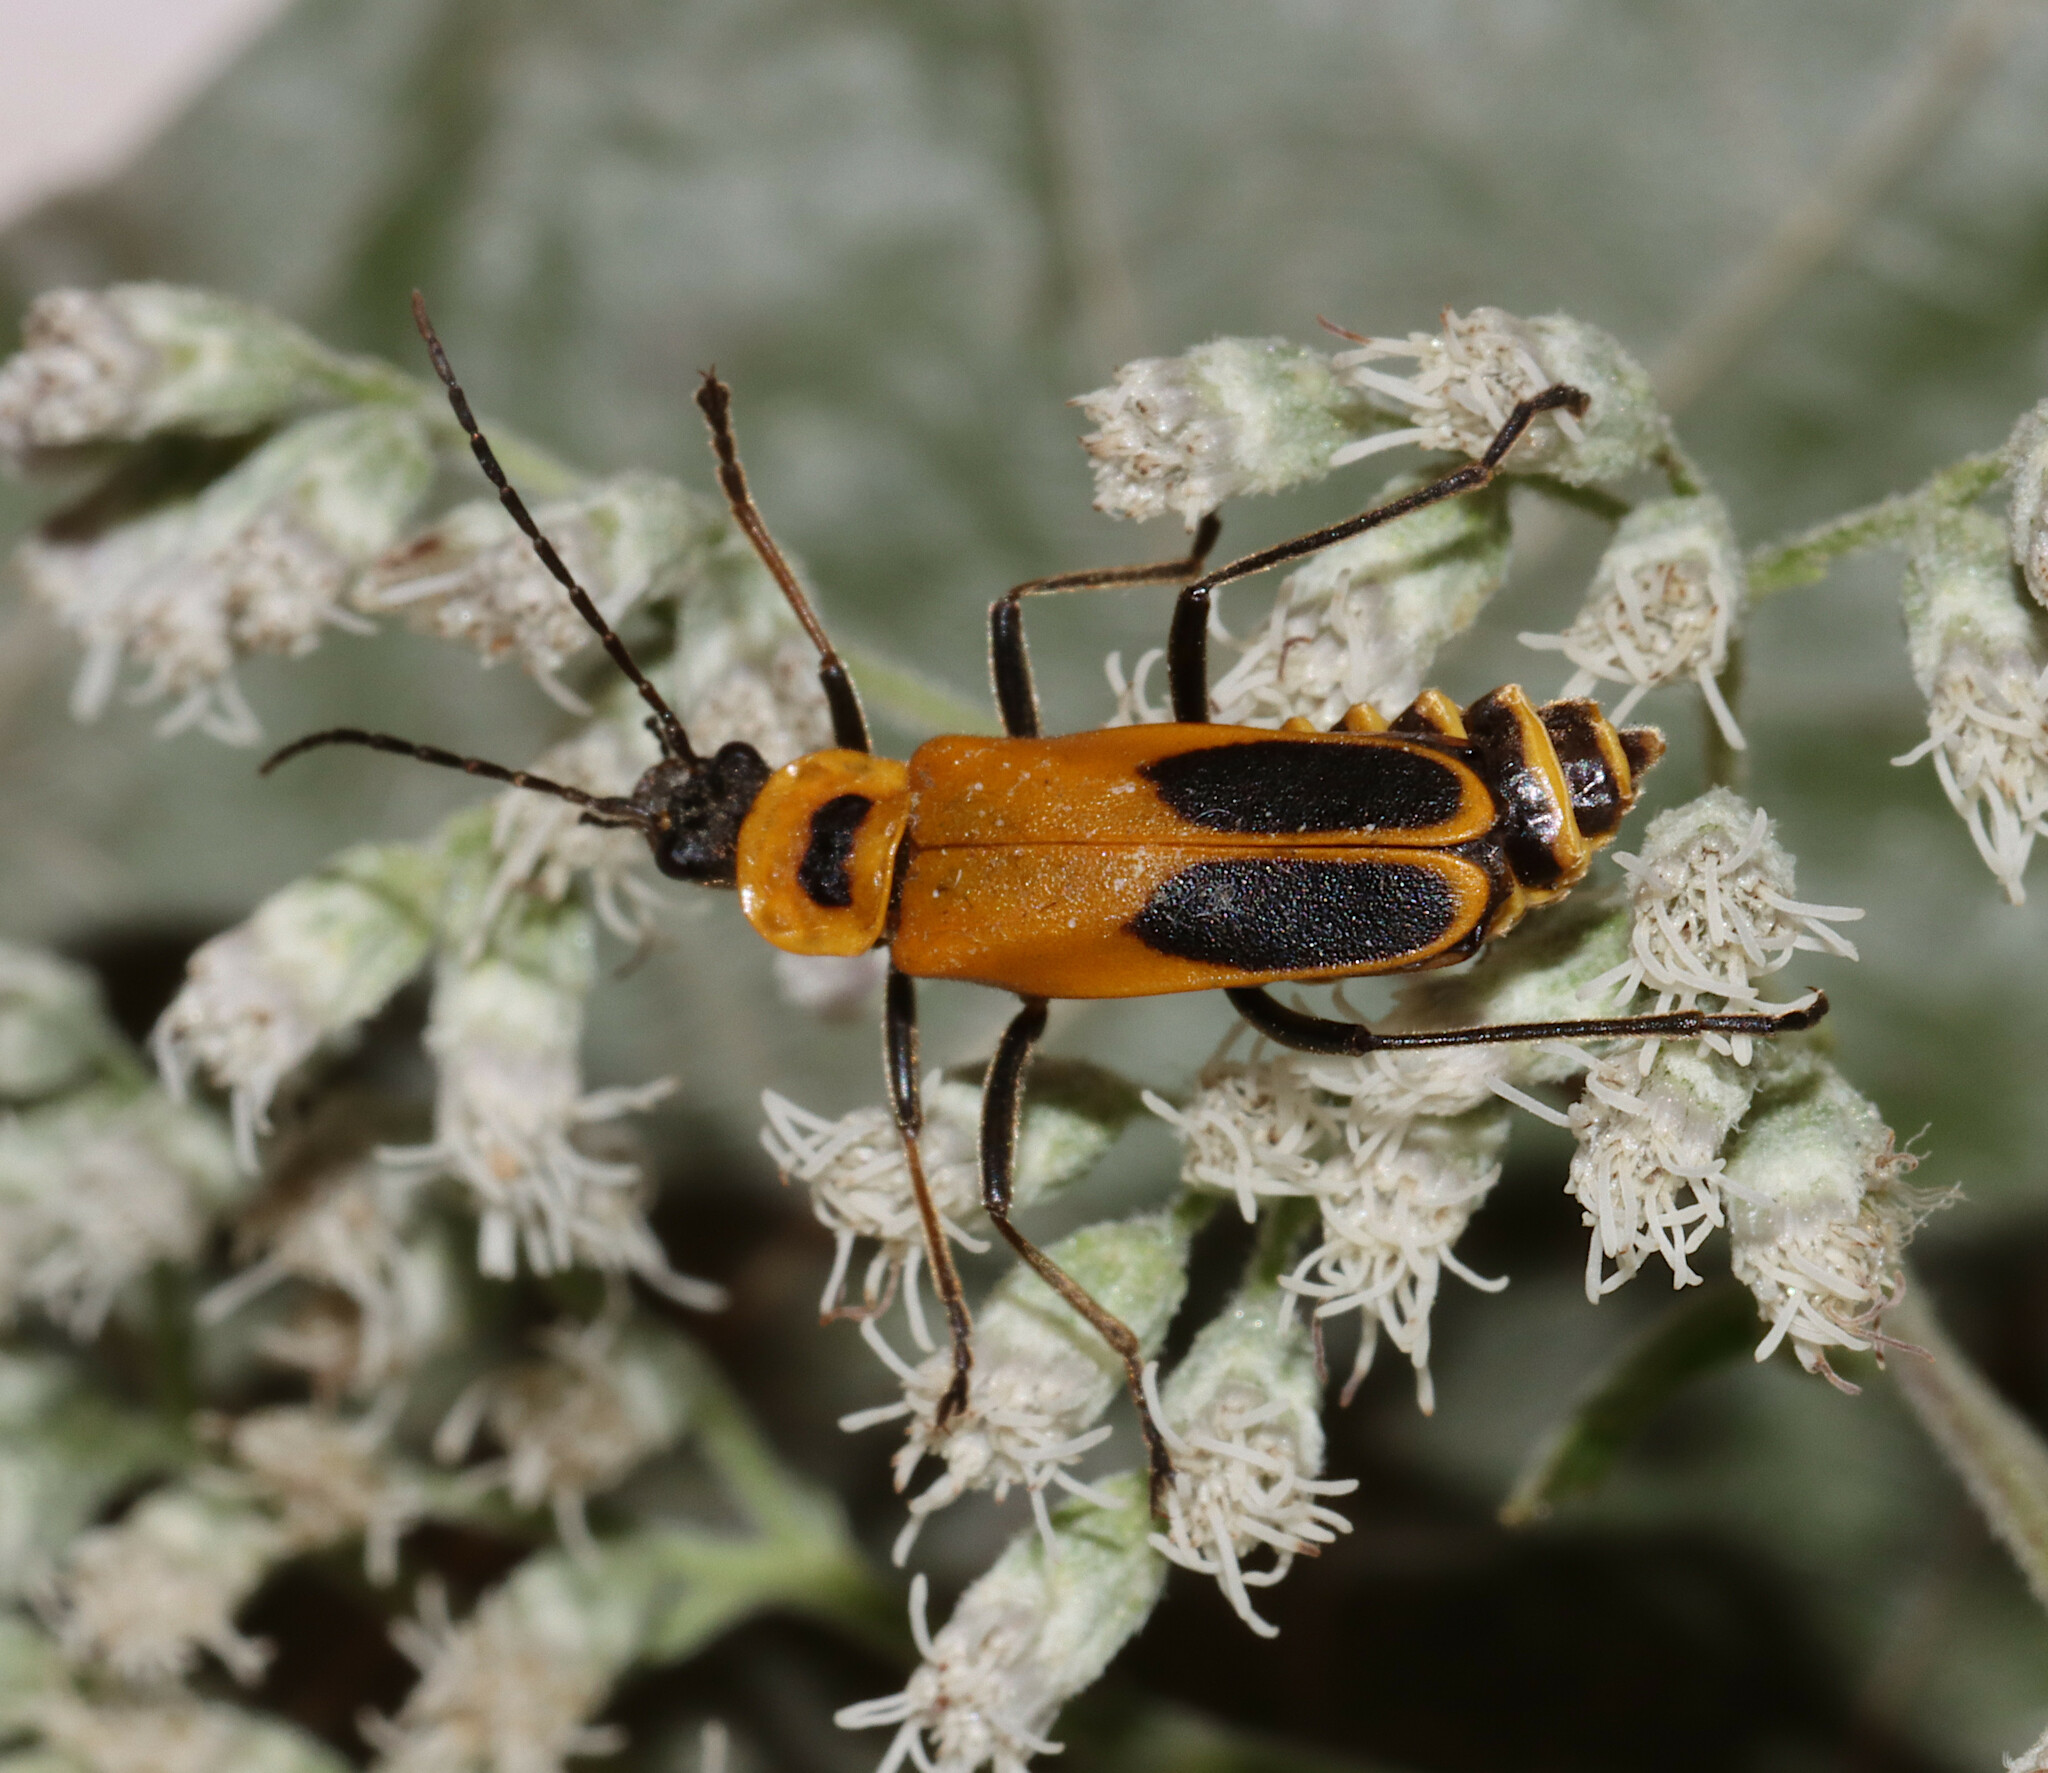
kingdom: Animalia
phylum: Arthropoda
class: Insecta
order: Coleoptera
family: Cantharidae
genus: Chauliognathus
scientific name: Chauliognathus pensylvanicus
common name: Goldenrod soldier beetle
